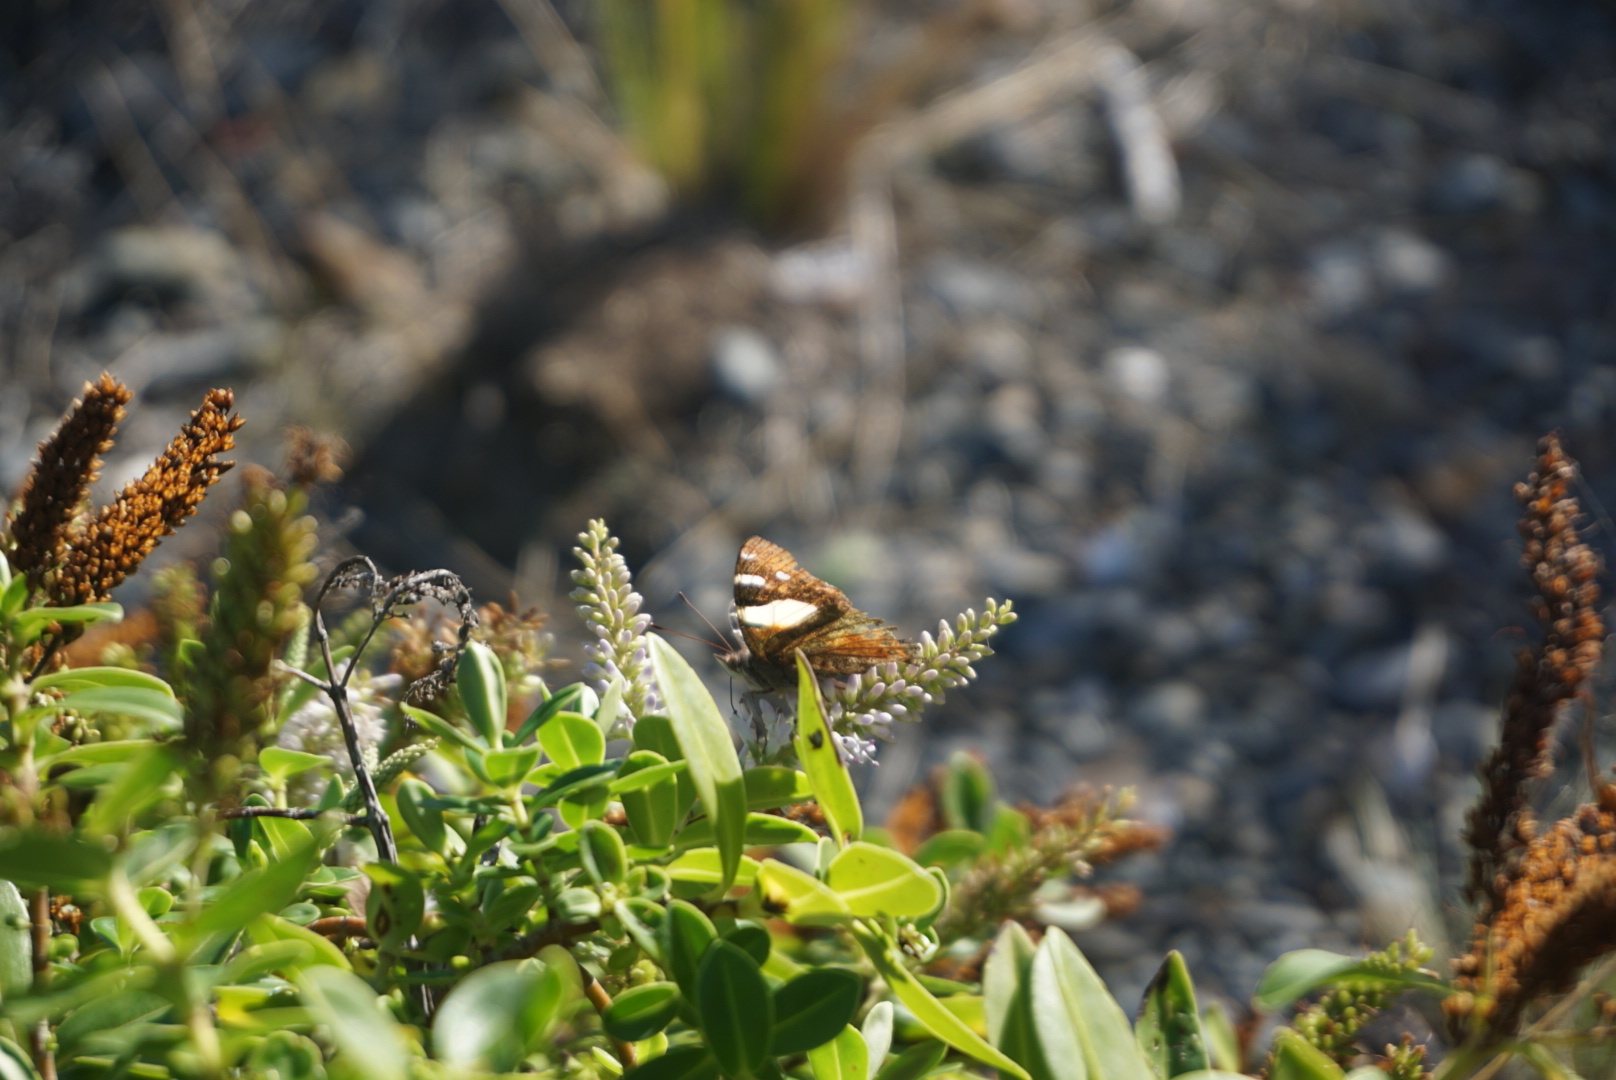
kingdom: Animalia
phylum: Arthropoda
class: Insecta
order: Lepidoptera
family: Nymphalidae
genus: Vanessa
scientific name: Vanessa itea
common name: Yellow admiral
